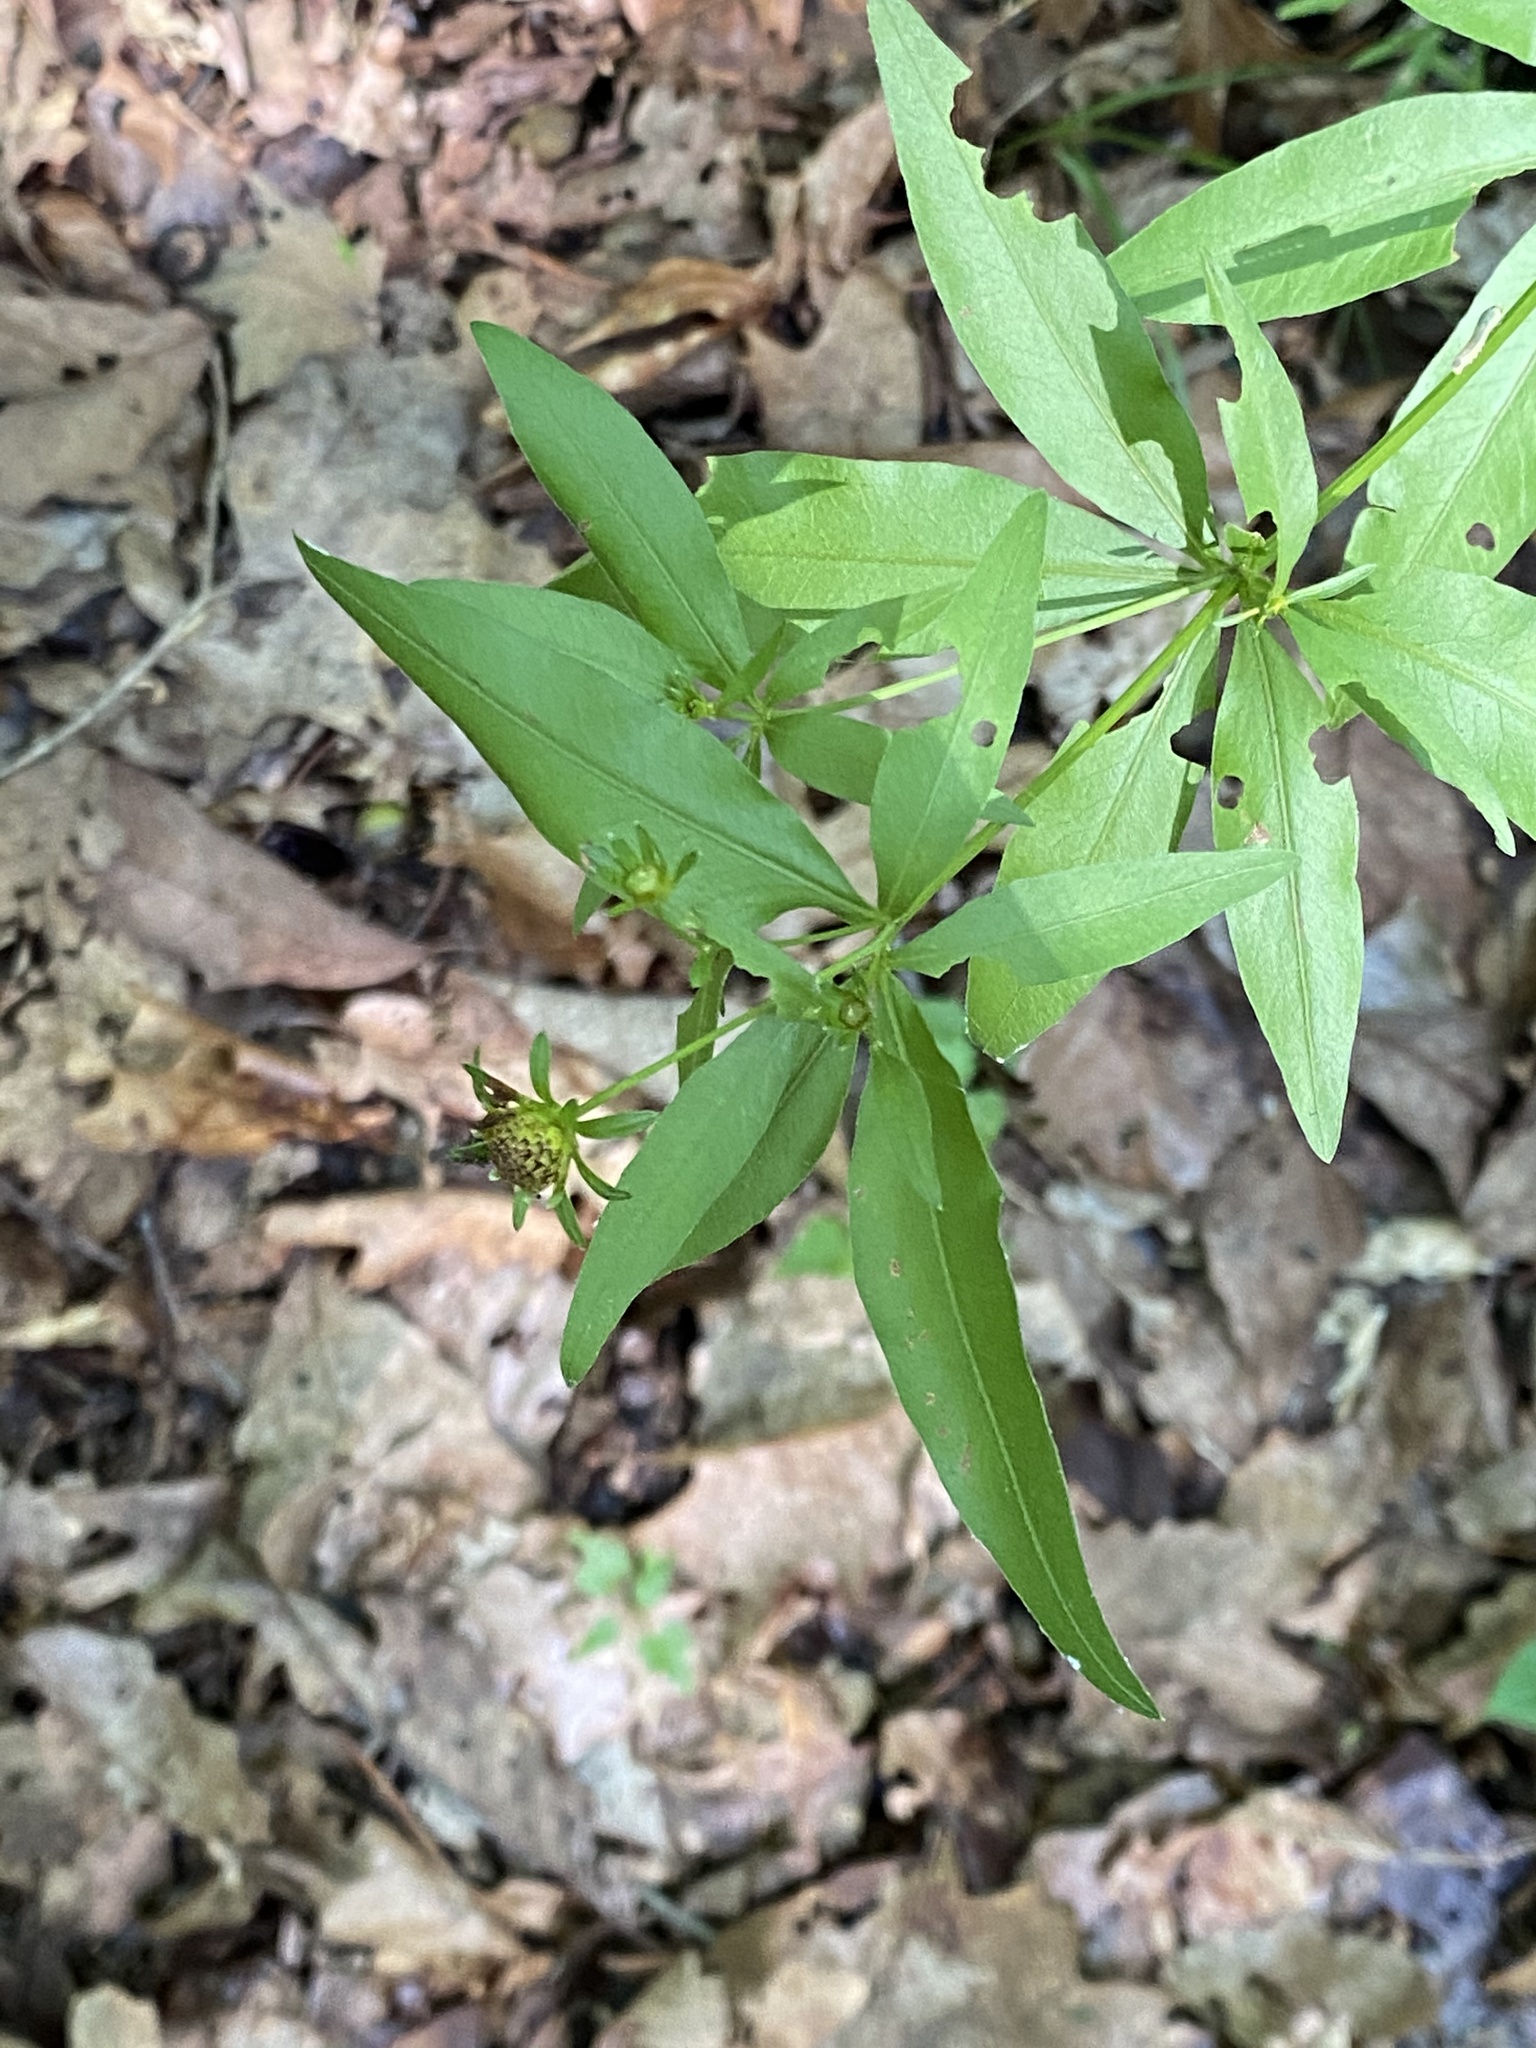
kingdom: Plantae
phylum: Tracheophyta
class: Magnoliopsida
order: Asterales
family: Asteraceae
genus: Coreopsis
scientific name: Coreopsis major
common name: Forest tickseed
